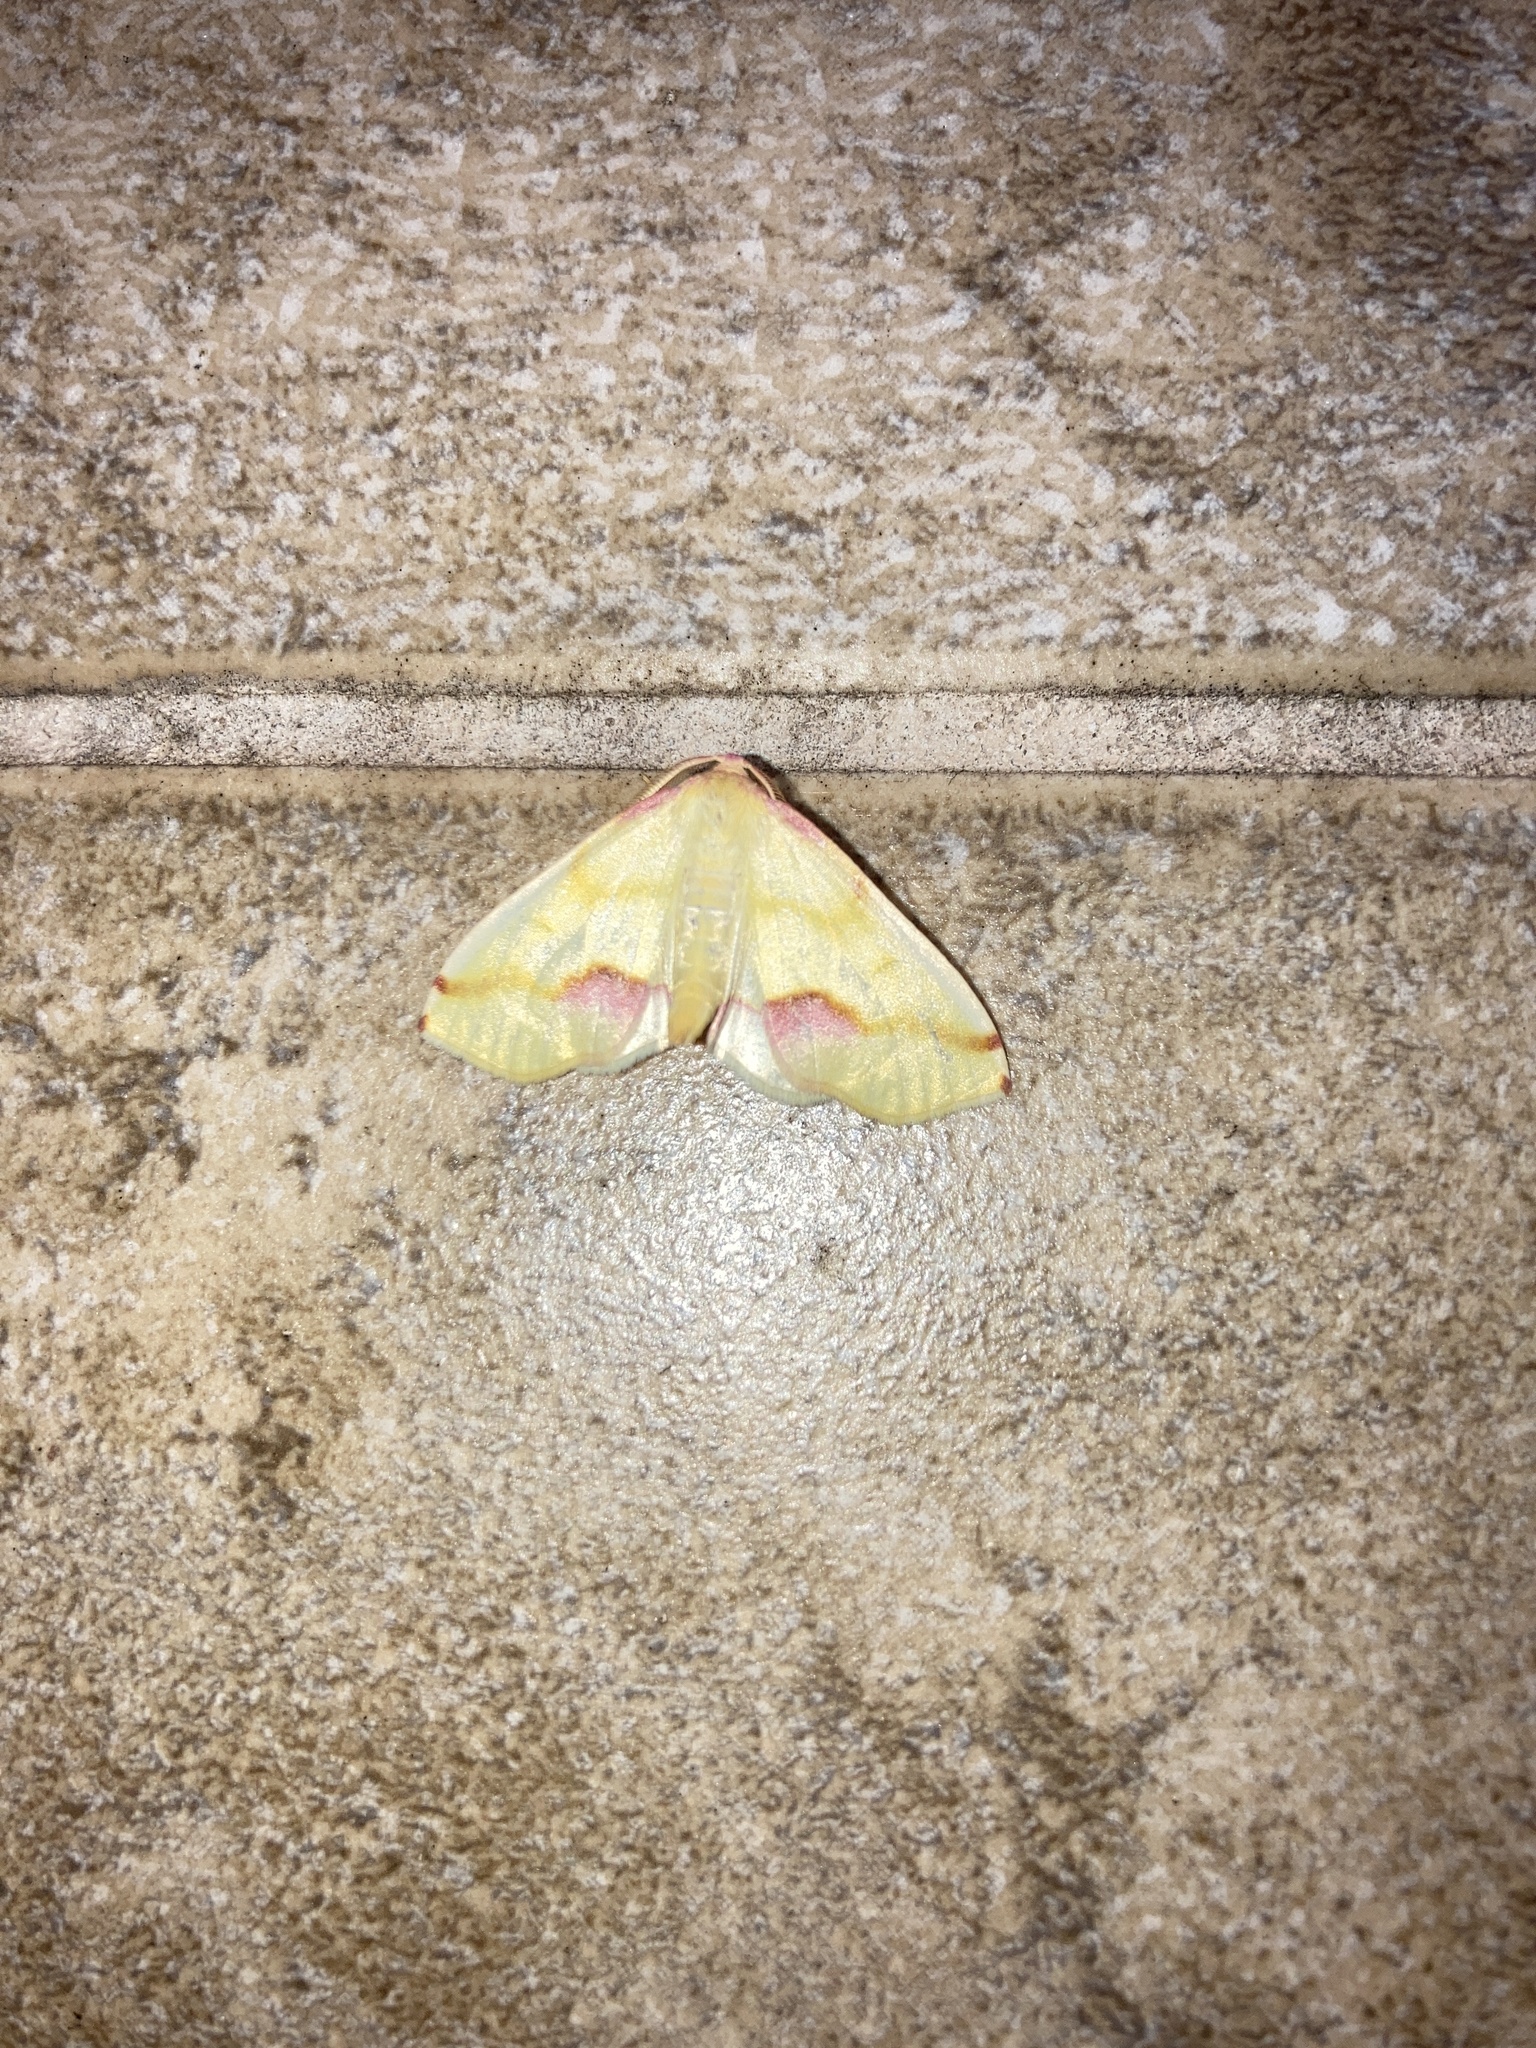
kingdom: Animalia
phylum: Arthropoda
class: Insecta
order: Lepidoptera
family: Geometridae
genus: Plagodis
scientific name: Plagodis serinaria
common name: Lemon plagodis
